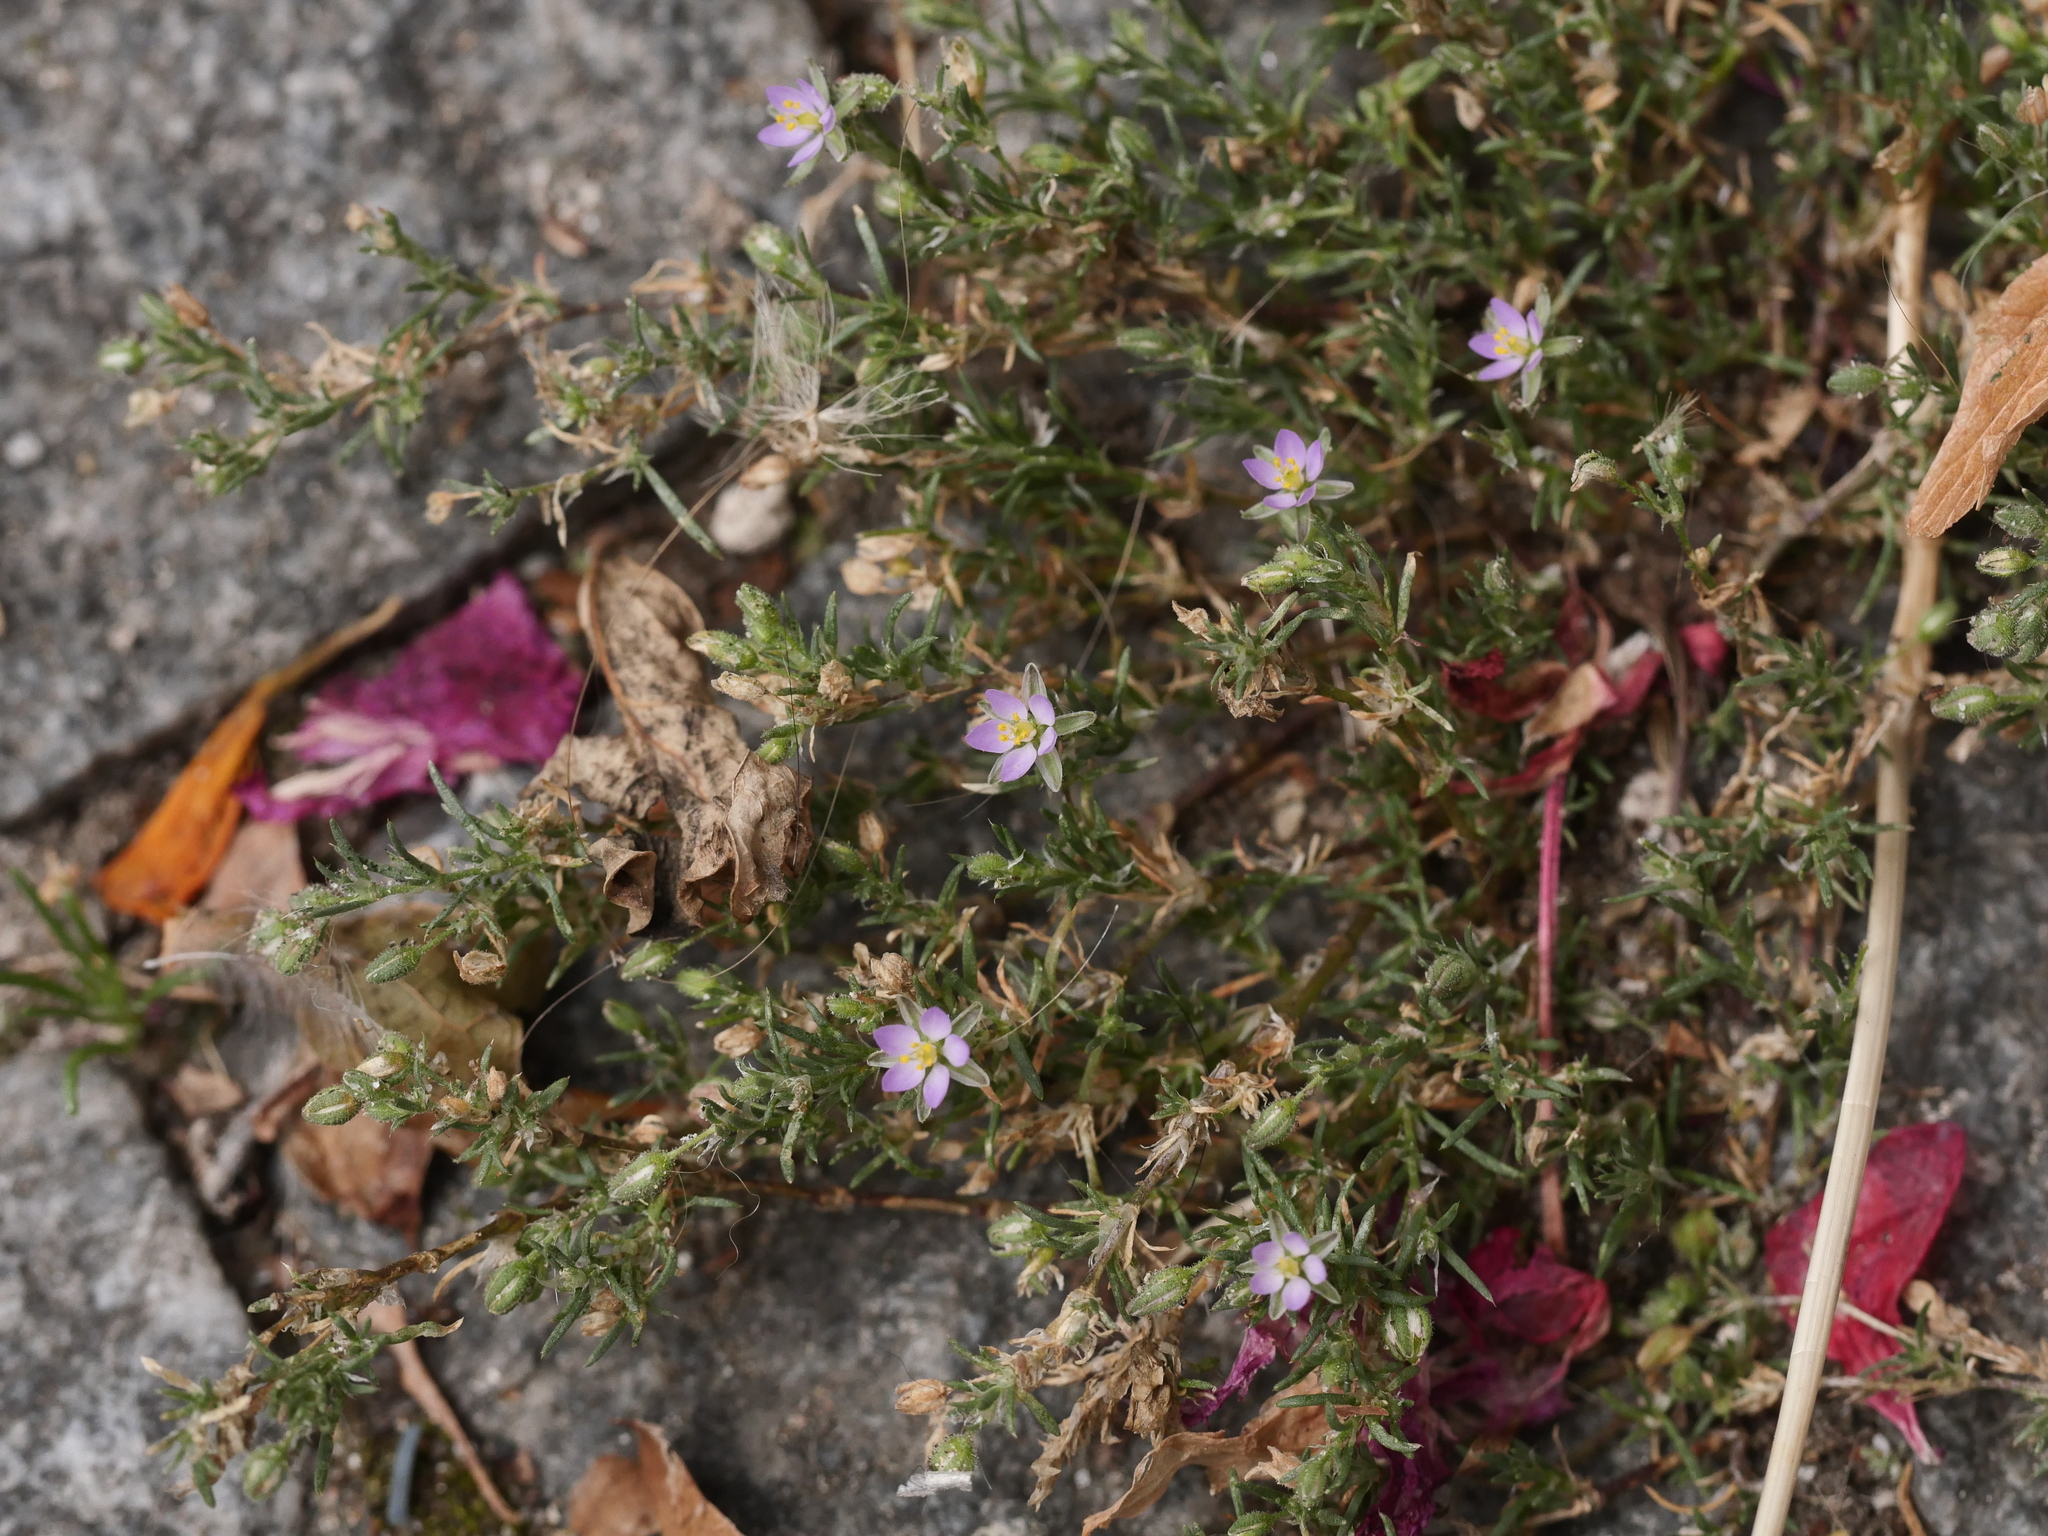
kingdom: Plantae
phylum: Tracheophyta
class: Magnoliopsida
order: Caryophyllales
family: Caryophyllaceae
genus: Spergularia
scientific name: Spergularia rubra
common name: Red sand-spurrey
